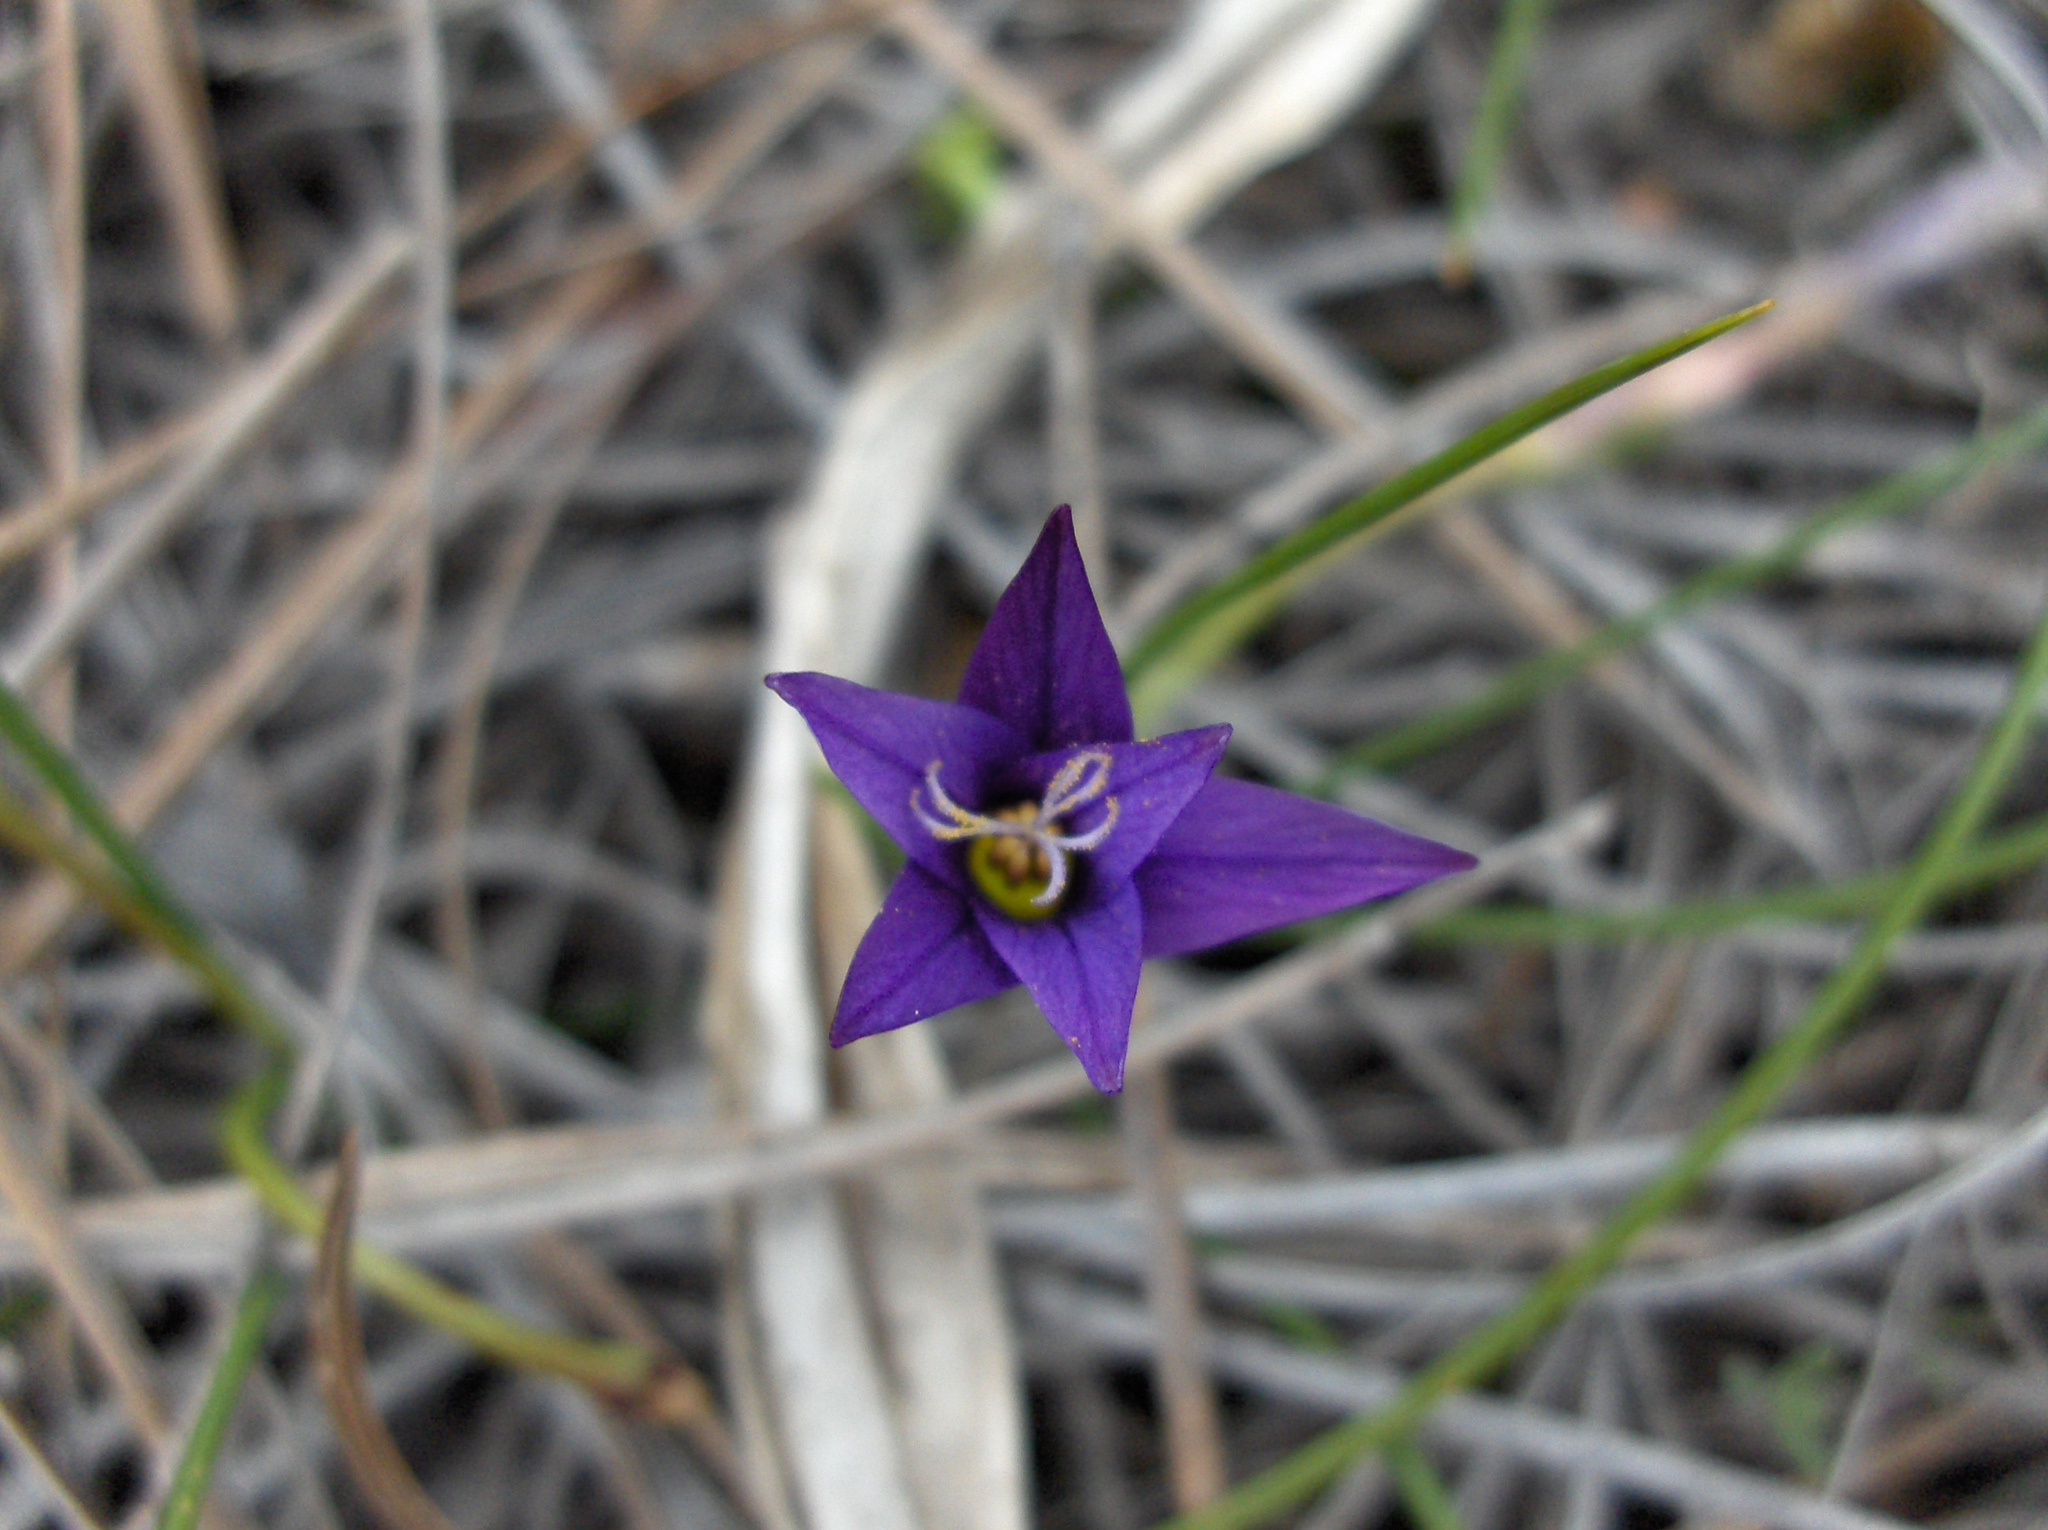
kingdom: Plantae
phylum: Tracheophyta
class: Liliopsida
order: Asparagales
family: Iridaceae
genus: Romulea
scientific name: Romulea columnae
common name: Sand-crocus
